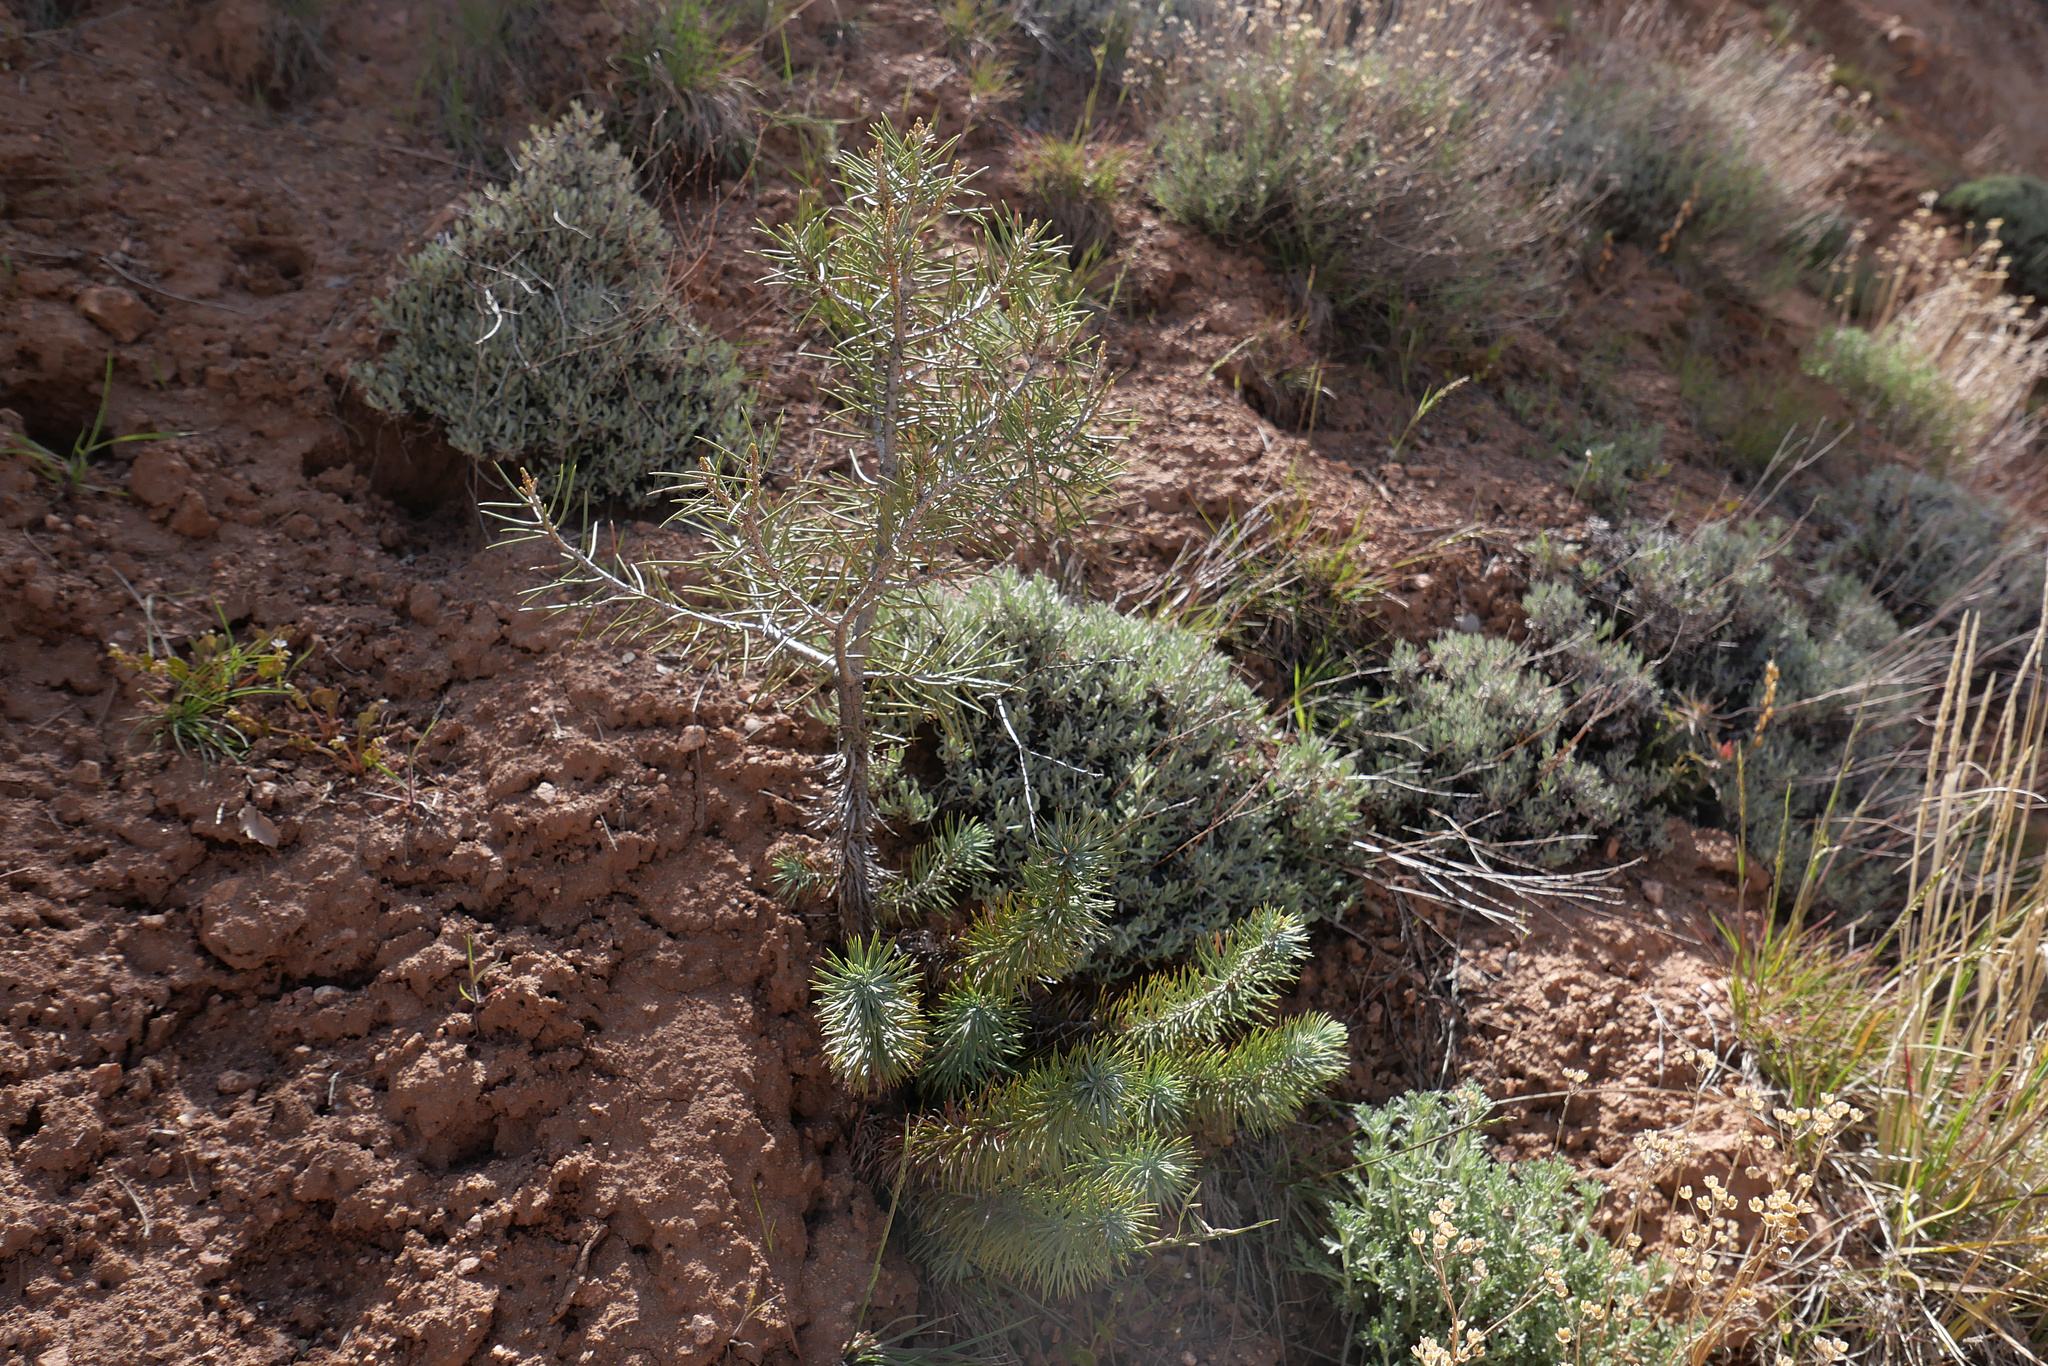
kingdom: Plantae
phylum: Tracheophyta
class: Pinopsida
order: Pinales
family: Pinaceae
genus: Pinus
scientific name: Pinus monophylla
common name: One-leaved nut pine
